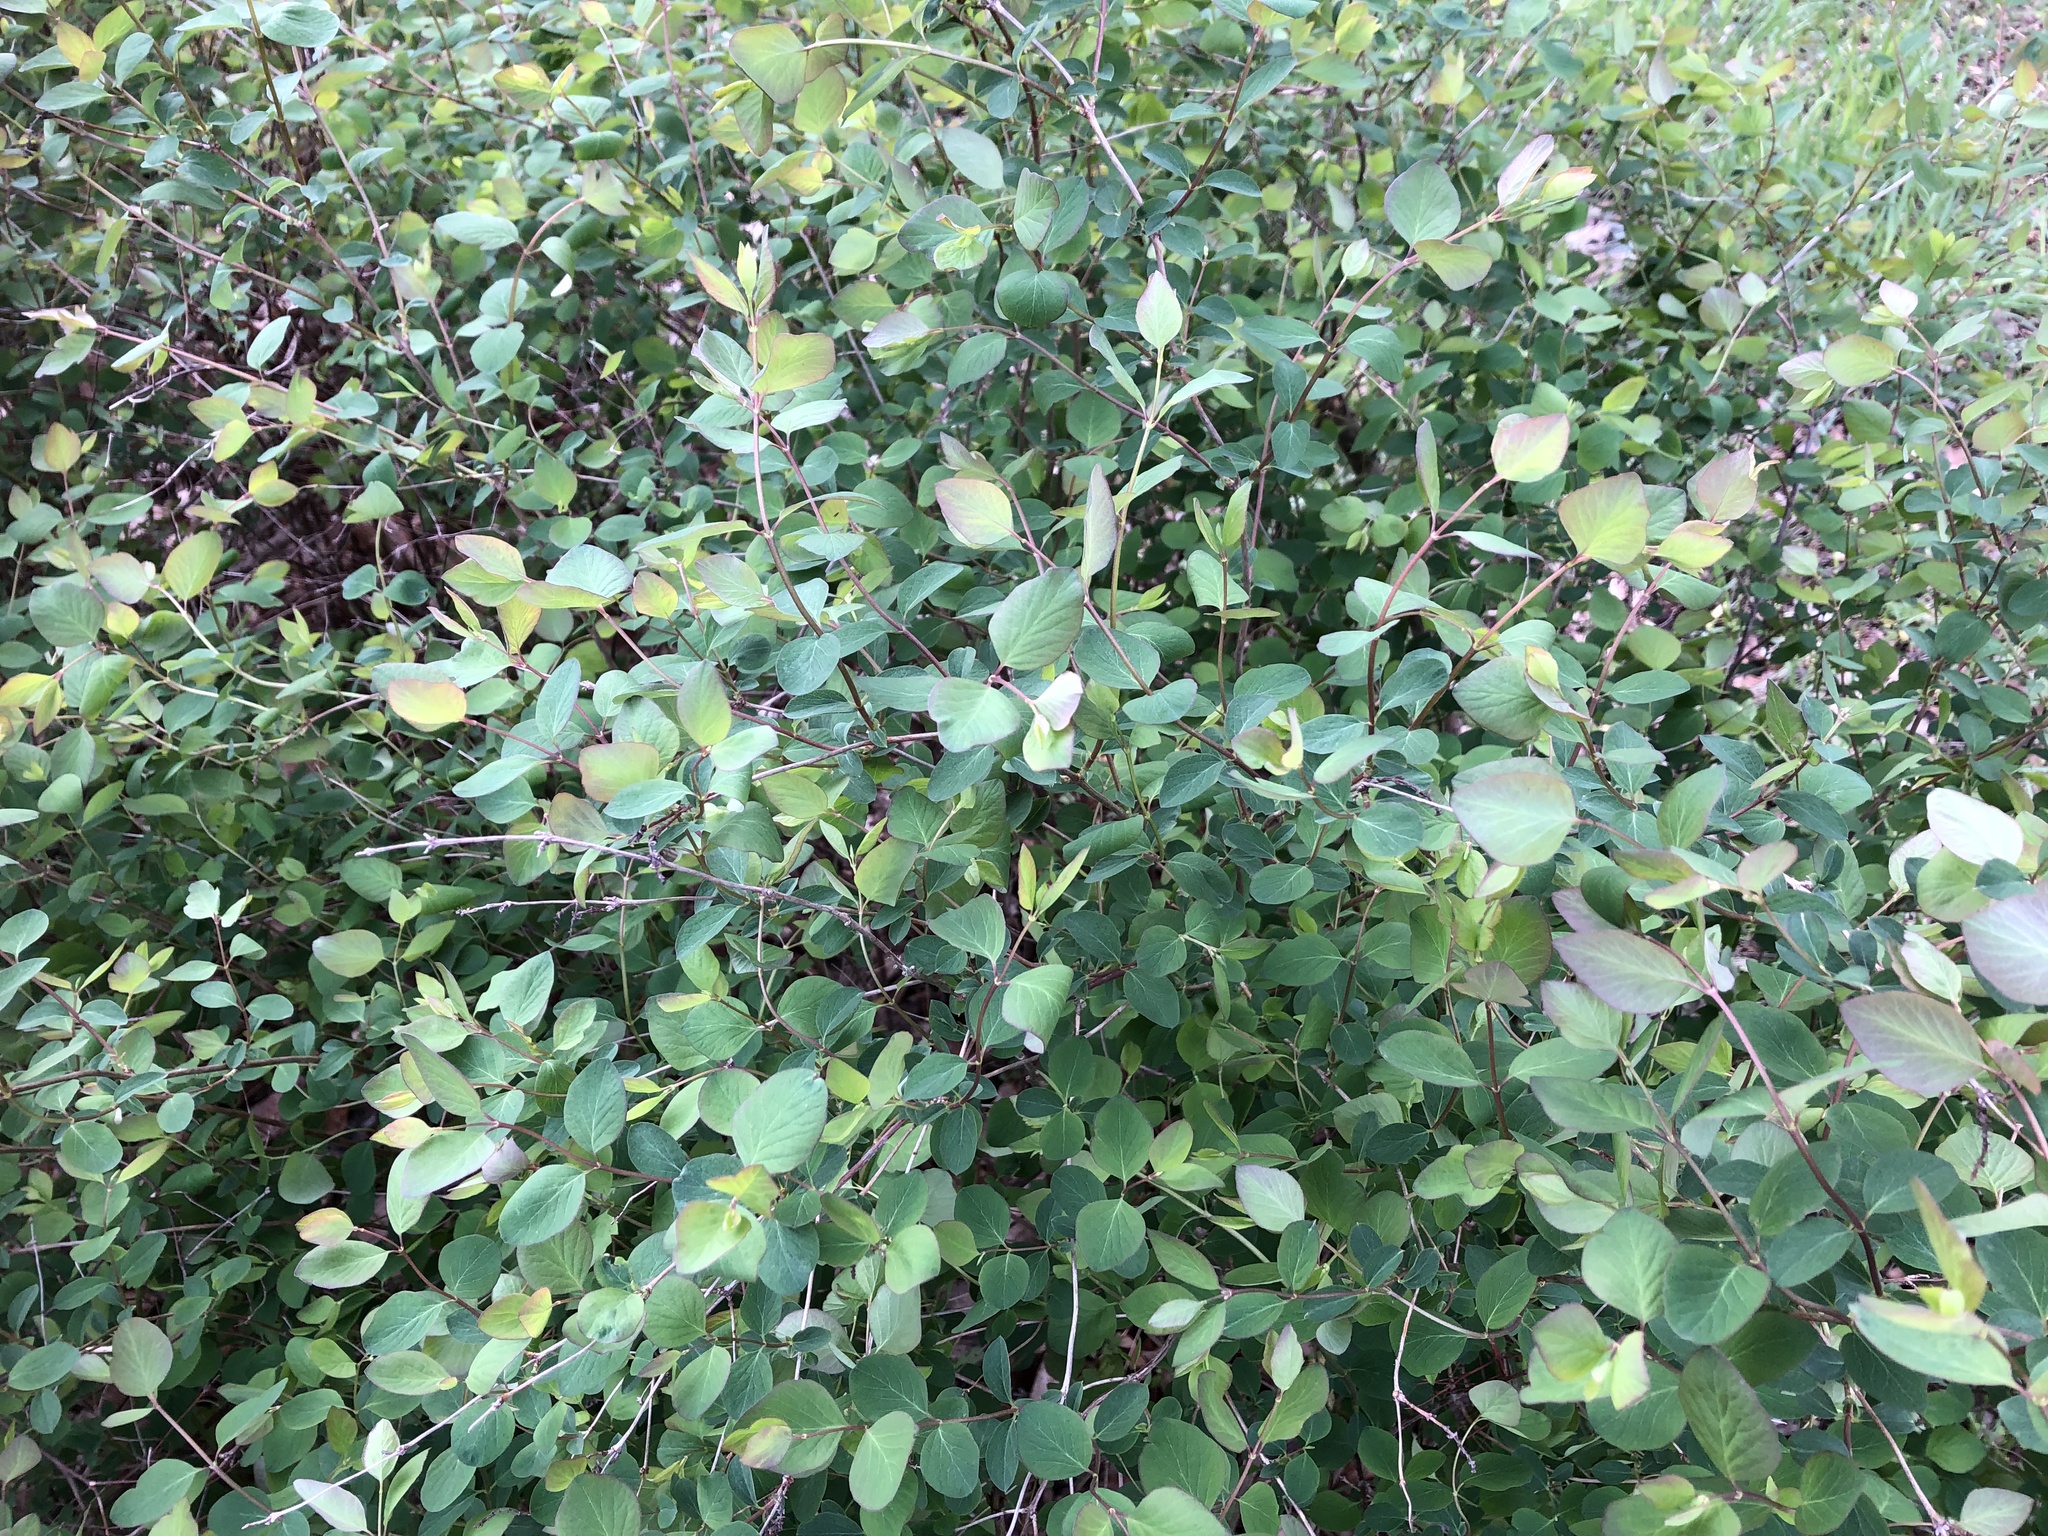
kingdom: Plantae
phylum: Tracheophyta
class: Magnoliopsida
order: Dipsacales
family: Caprifoliaceae
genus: Symphoricarpos
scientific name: Symphoricarpos albus
